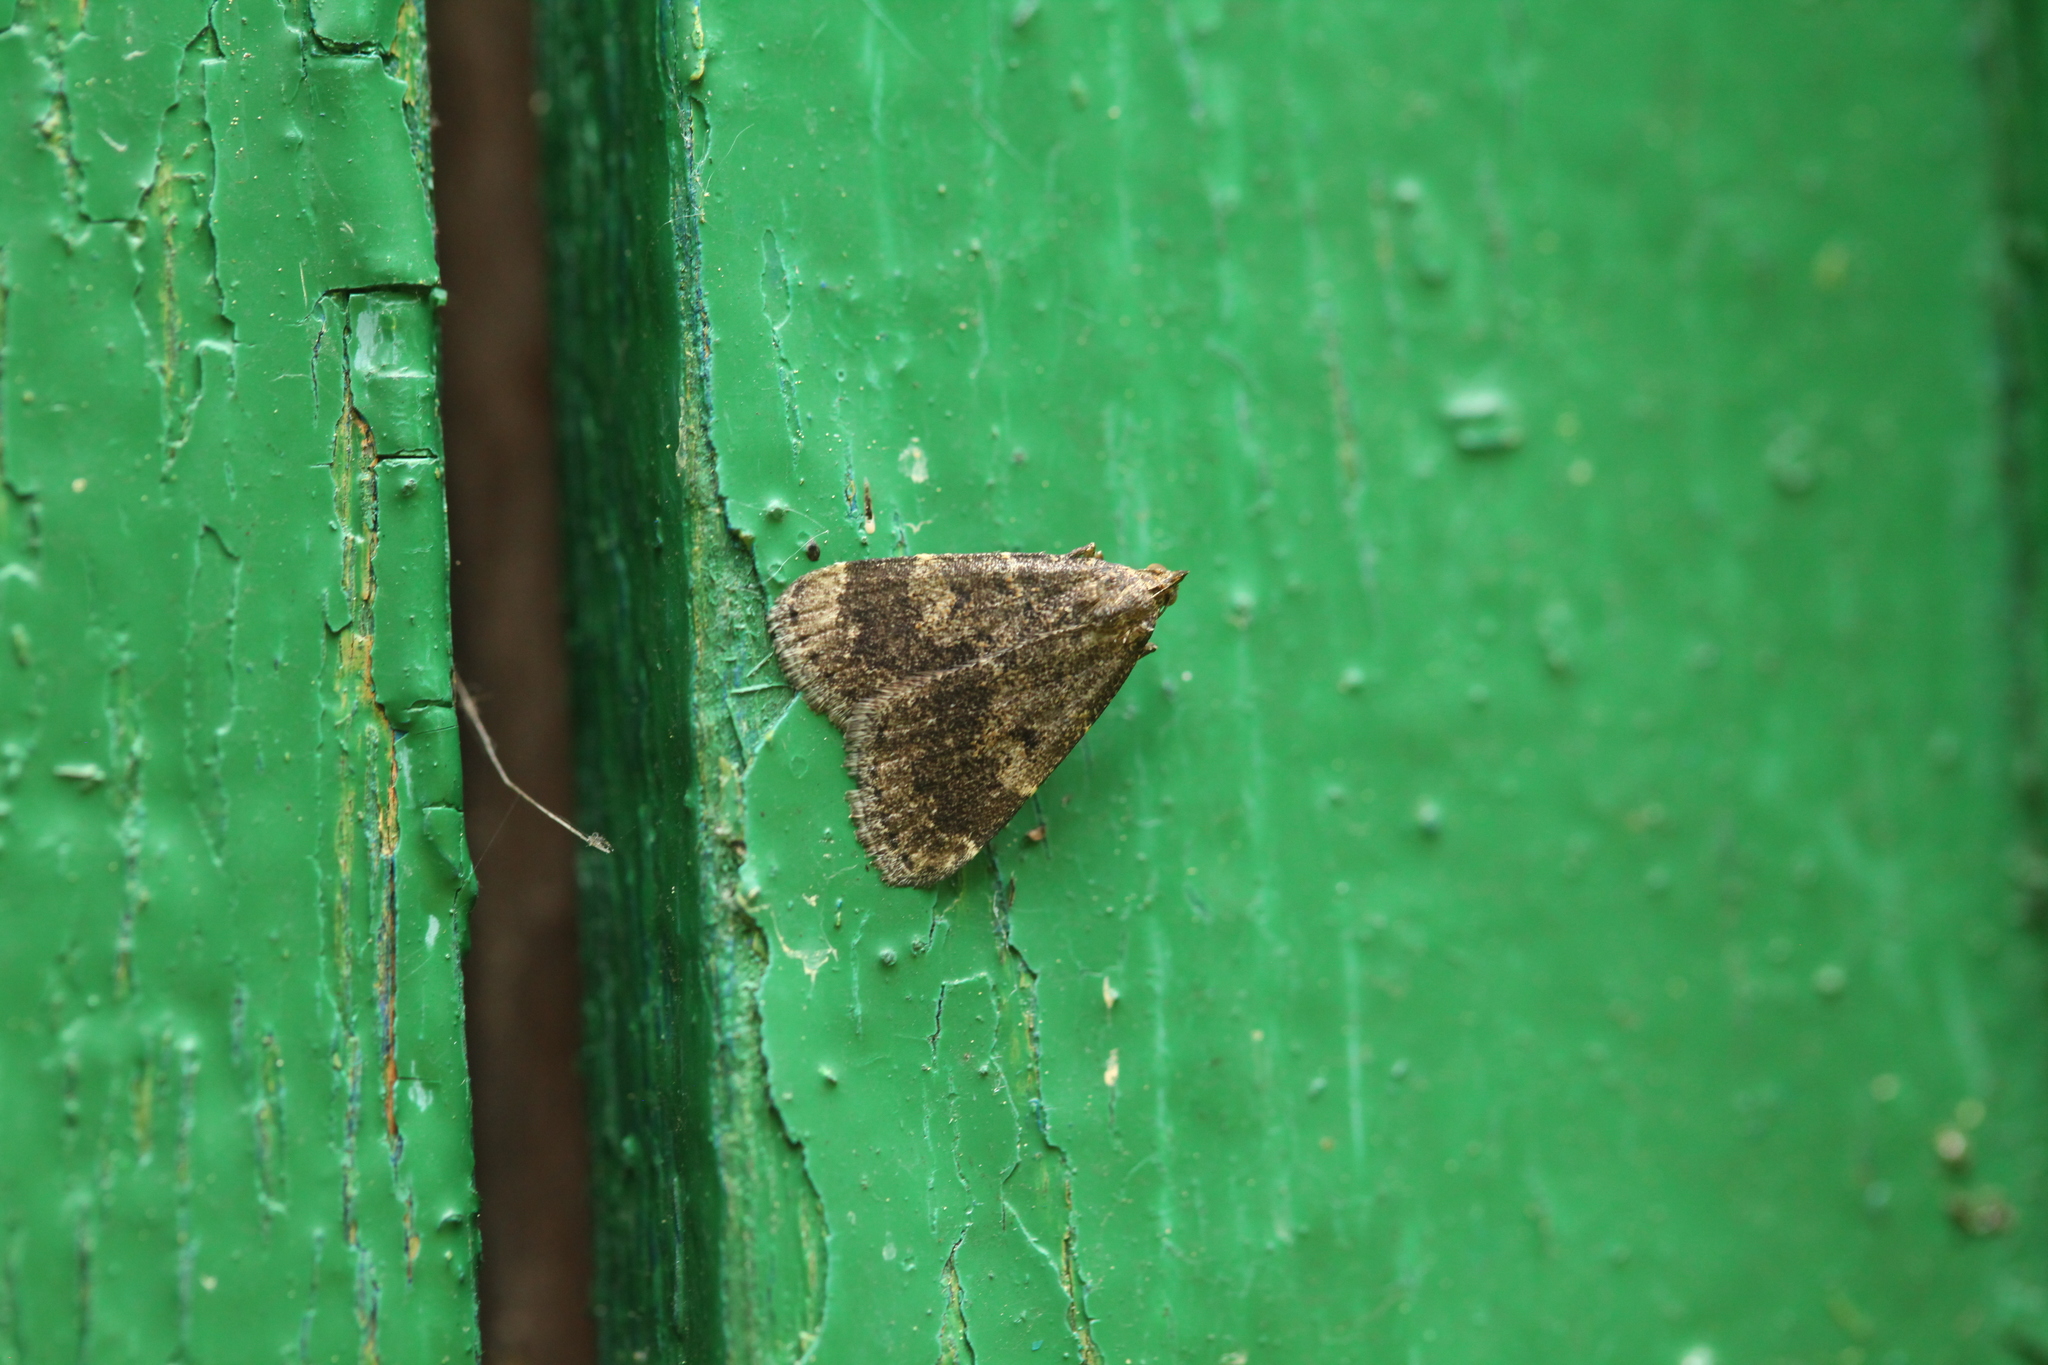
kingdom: Animalia
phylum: Arthropoda
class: Insecta
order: Lepidoptera
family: Erebidae
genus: Hydrillodes
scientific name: Hydrillodes morosa
